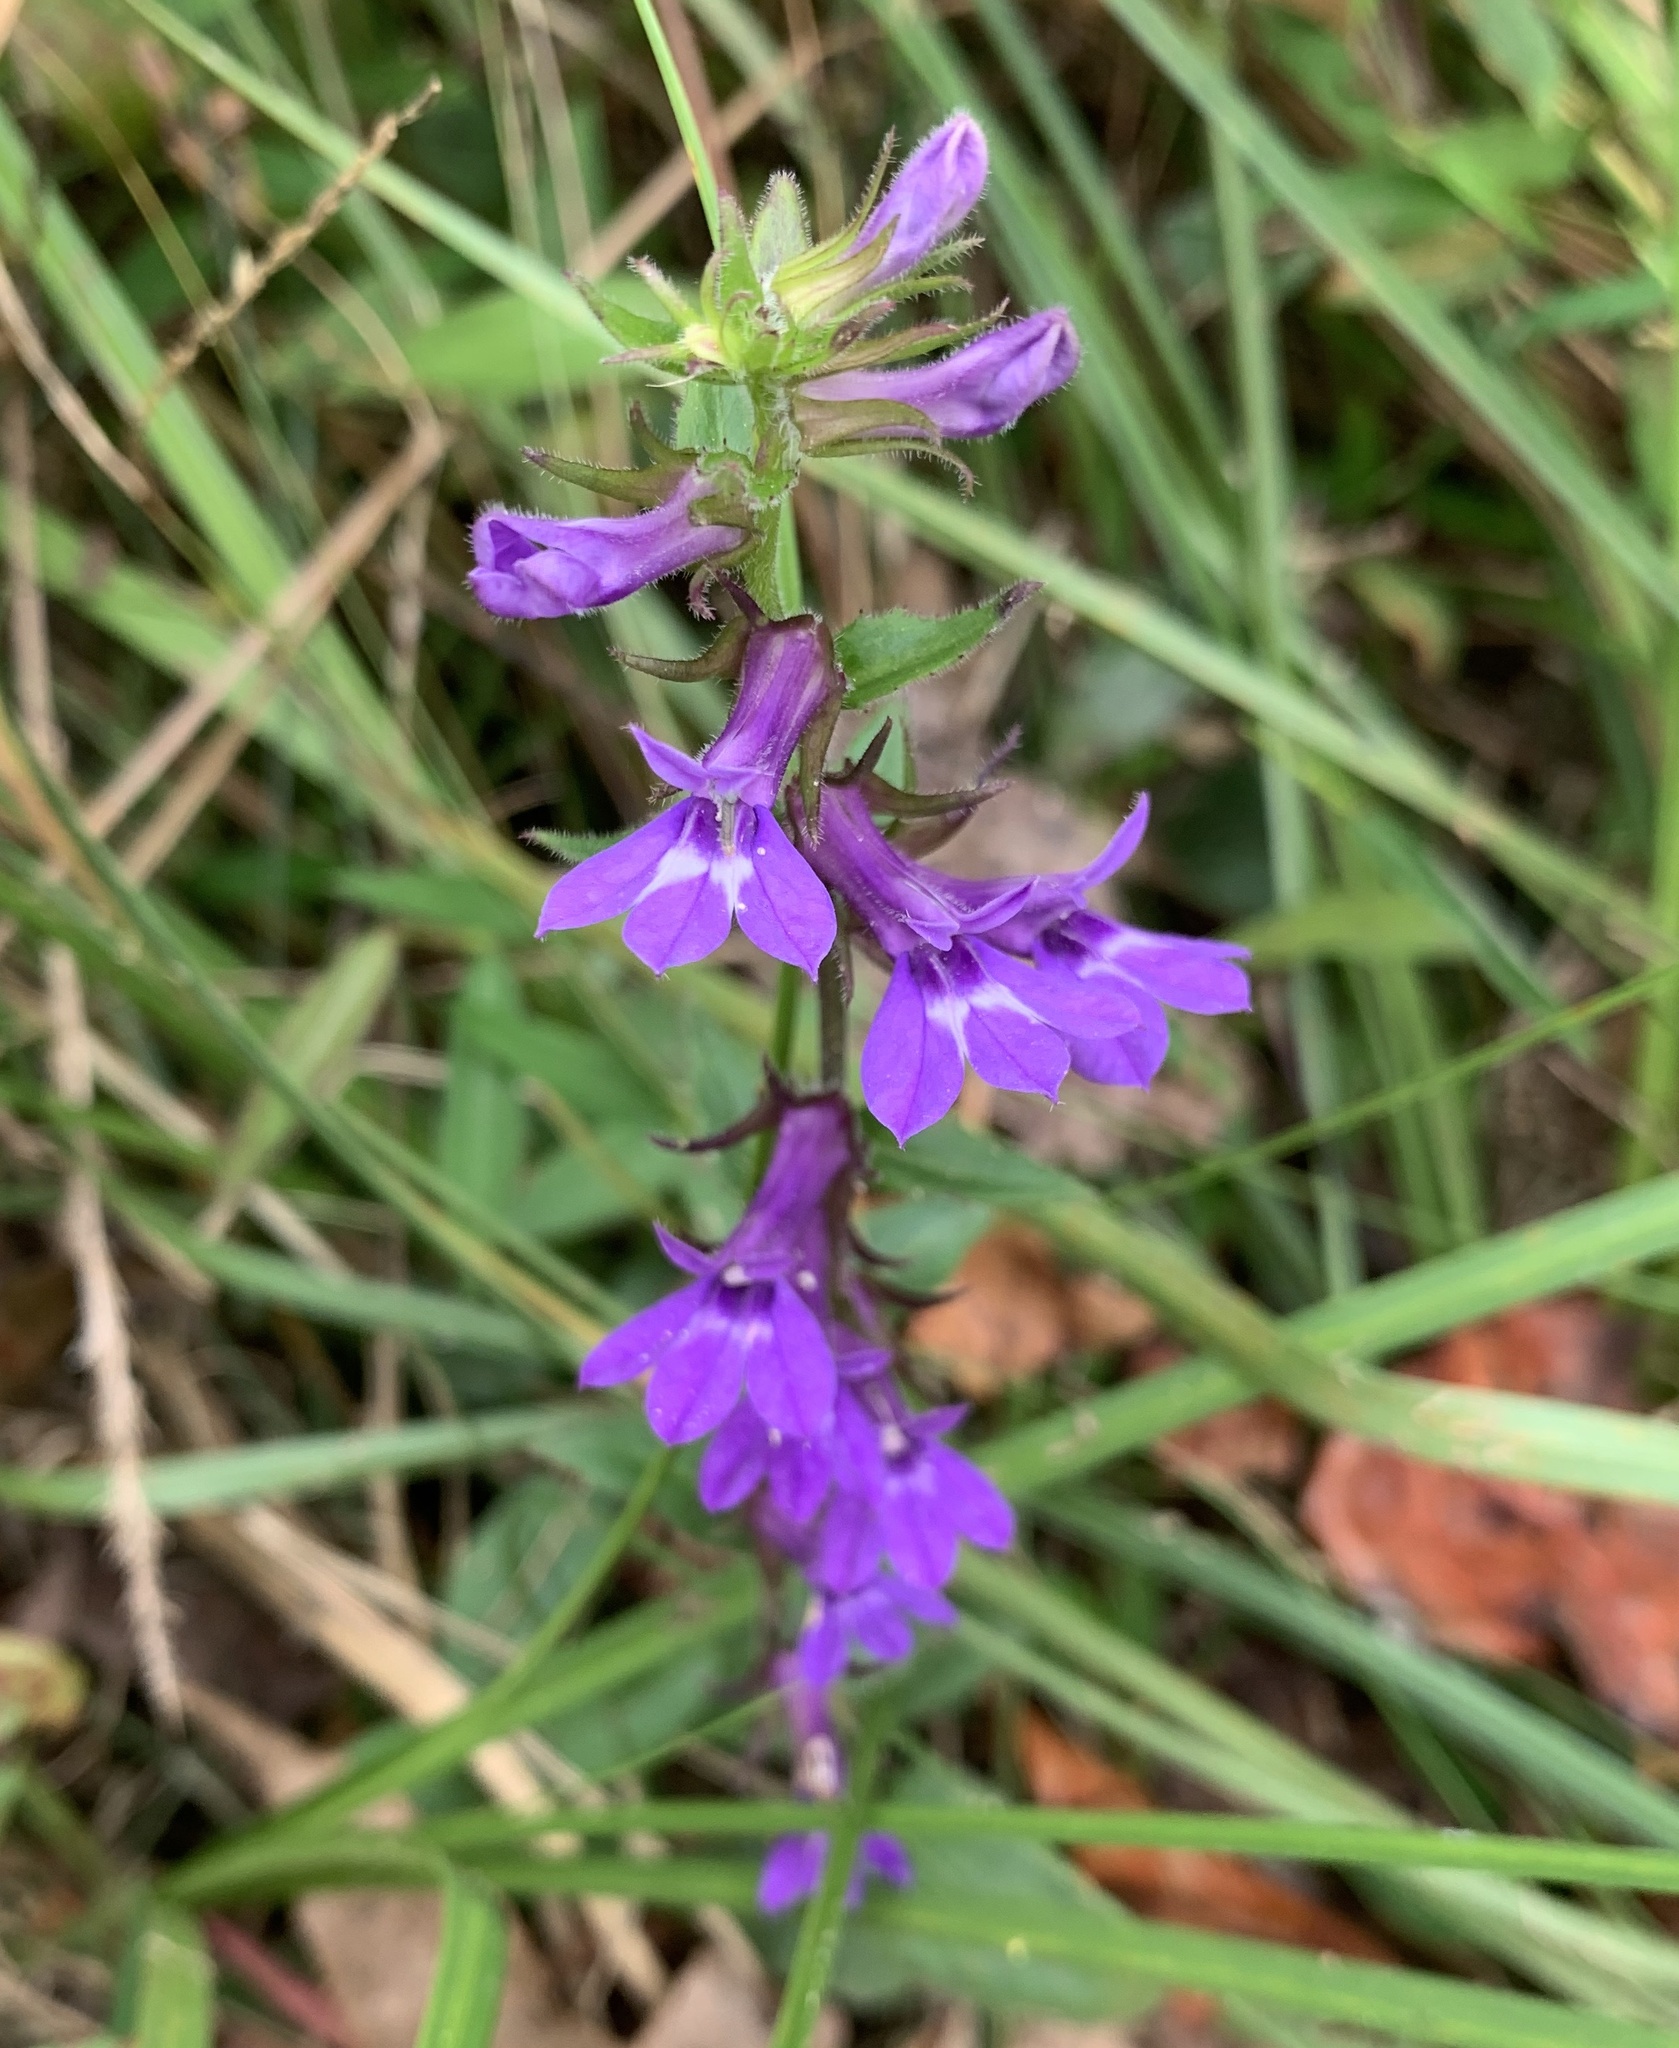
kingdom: Plantae
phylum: Tracheophyta
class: Magnoliopsida
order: Asterales
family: Campanulaceae
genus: Lobelia
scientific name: Lobelia puberula
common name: Purple dewdrop
